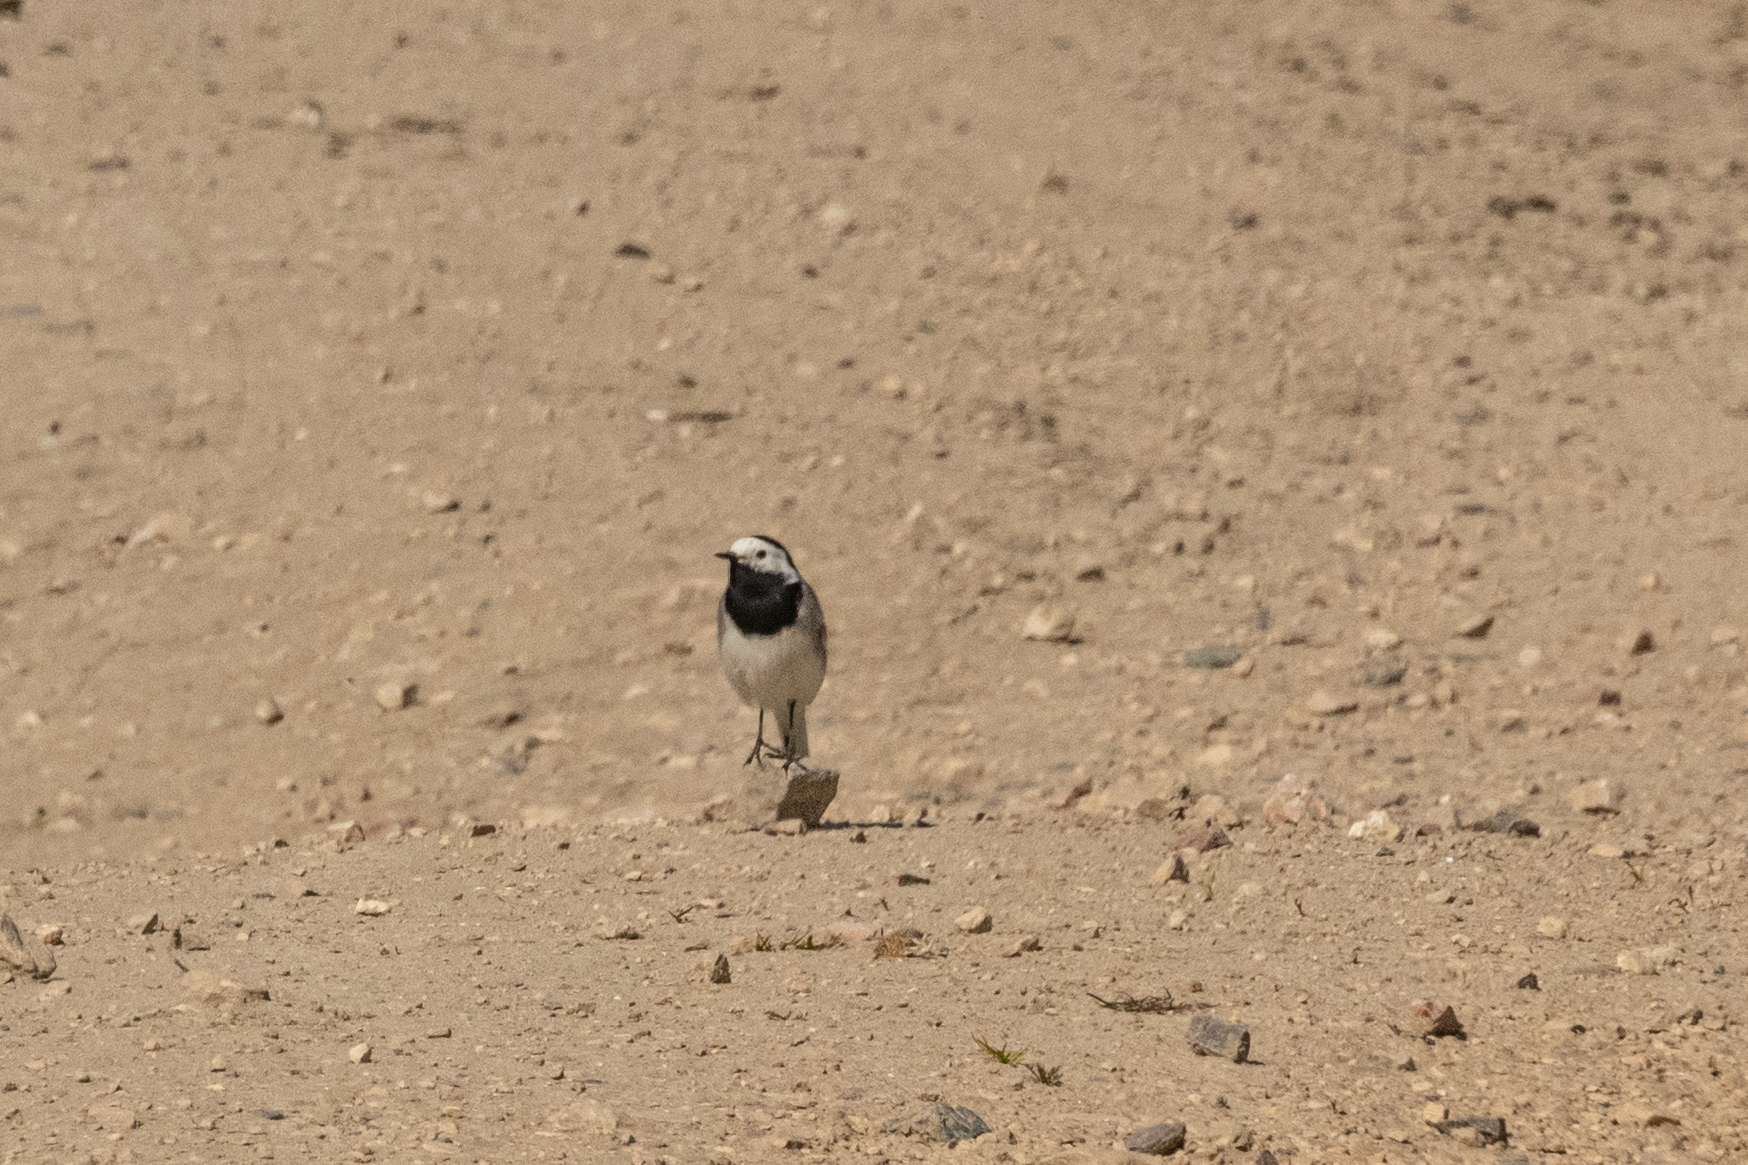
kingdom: Animalia
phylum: Chordata
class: Aves
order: Passeriformes
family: Motacillidae
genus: Motacilla
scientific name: Motacilla alba
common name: White wagtail
